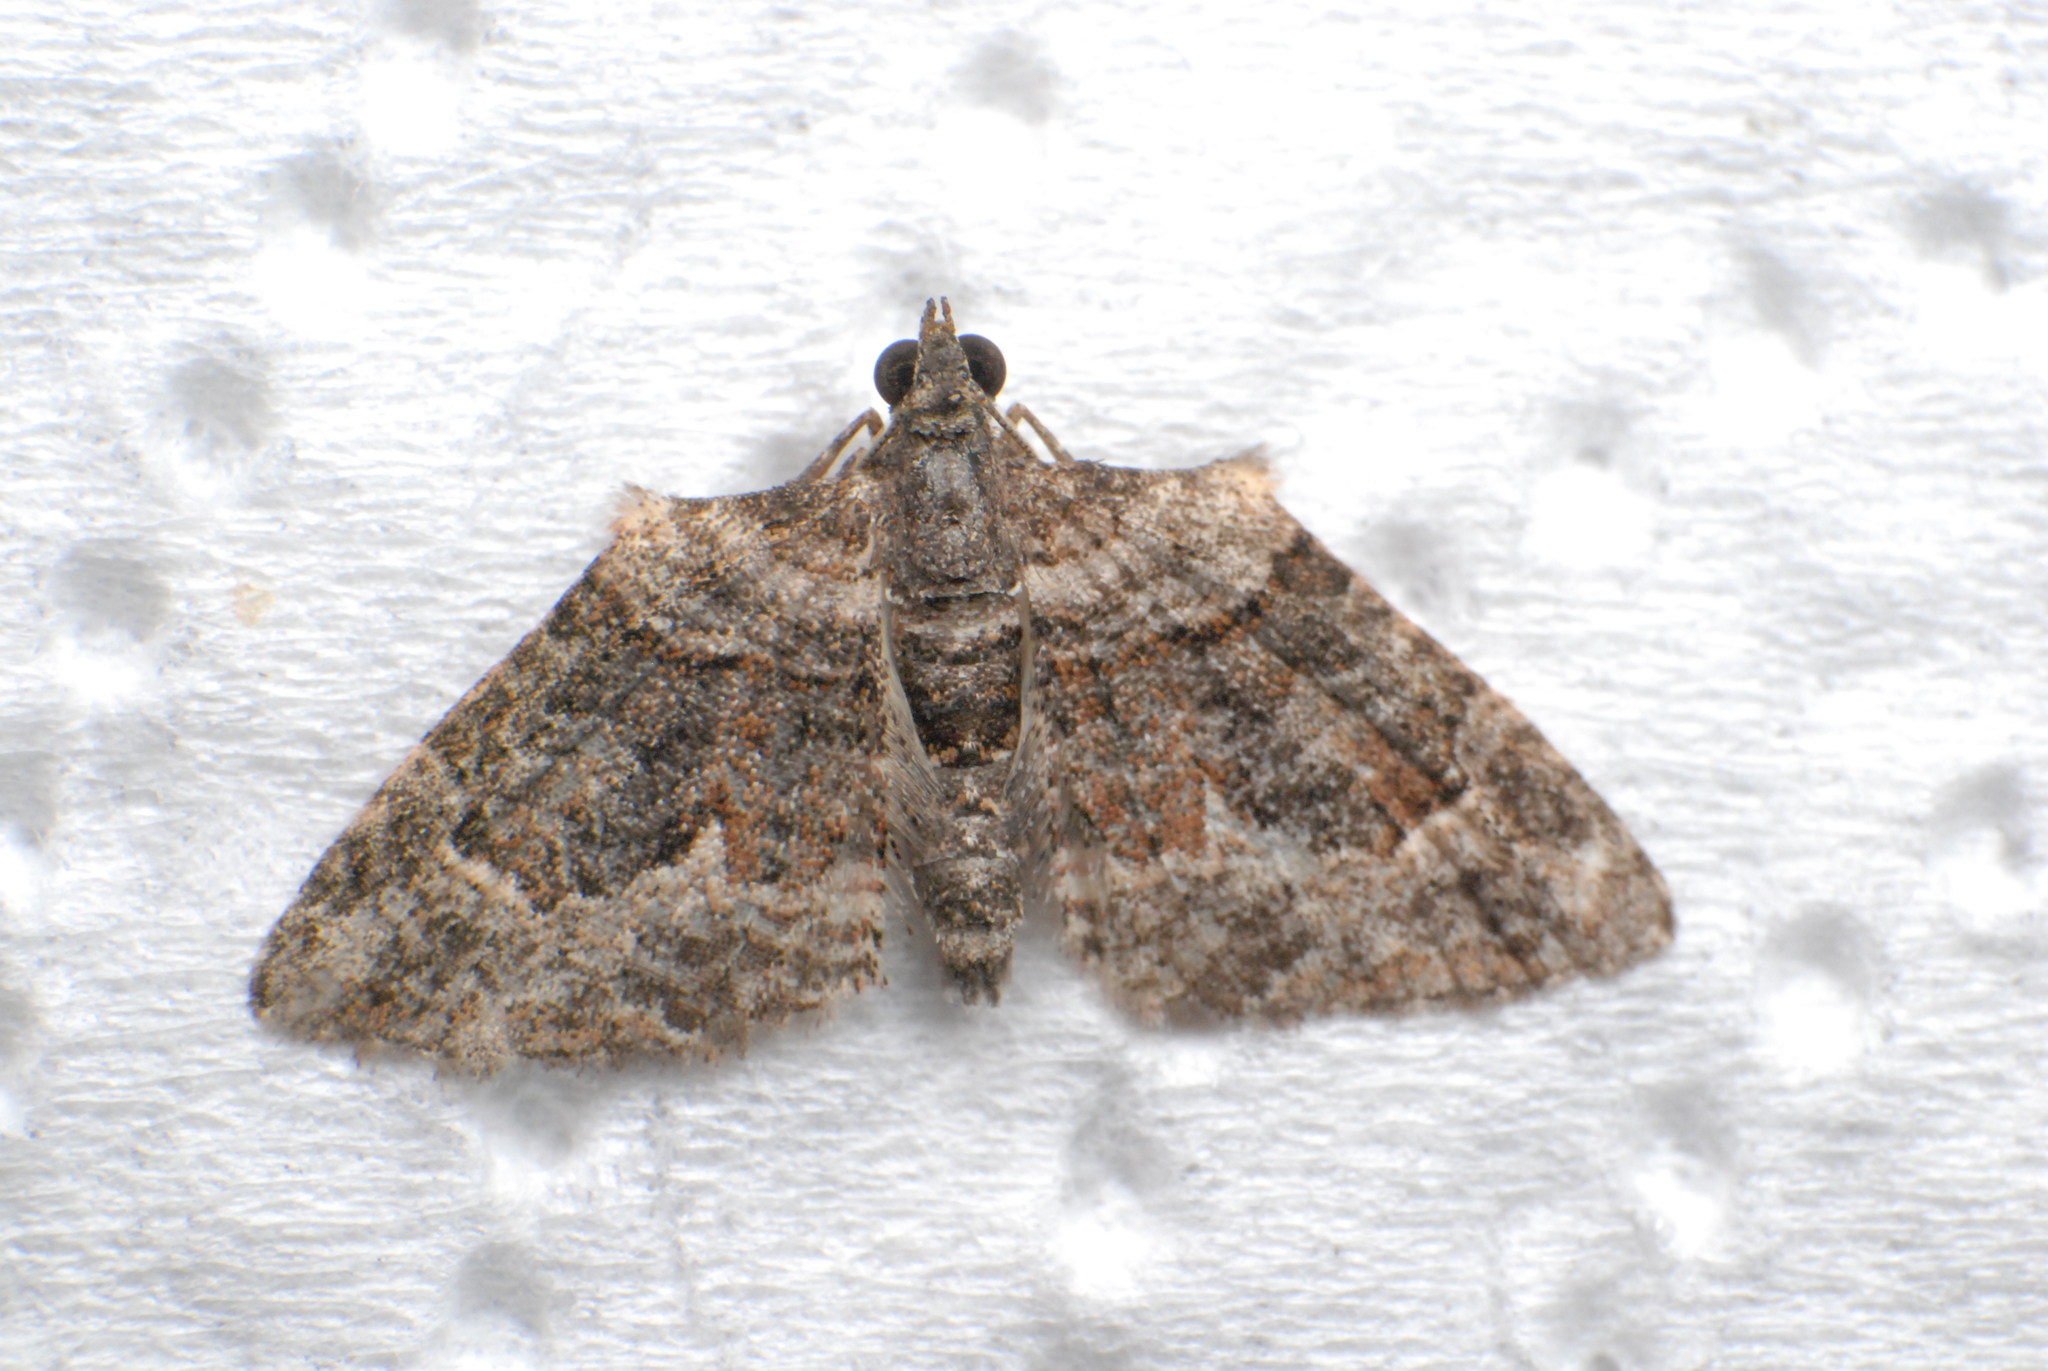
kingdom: Animalia
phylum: Arthropoda
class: Insecta
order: Lepidoptera
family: Geometridae
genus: Phrissogonus
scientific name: Phrissogonus laticostata
